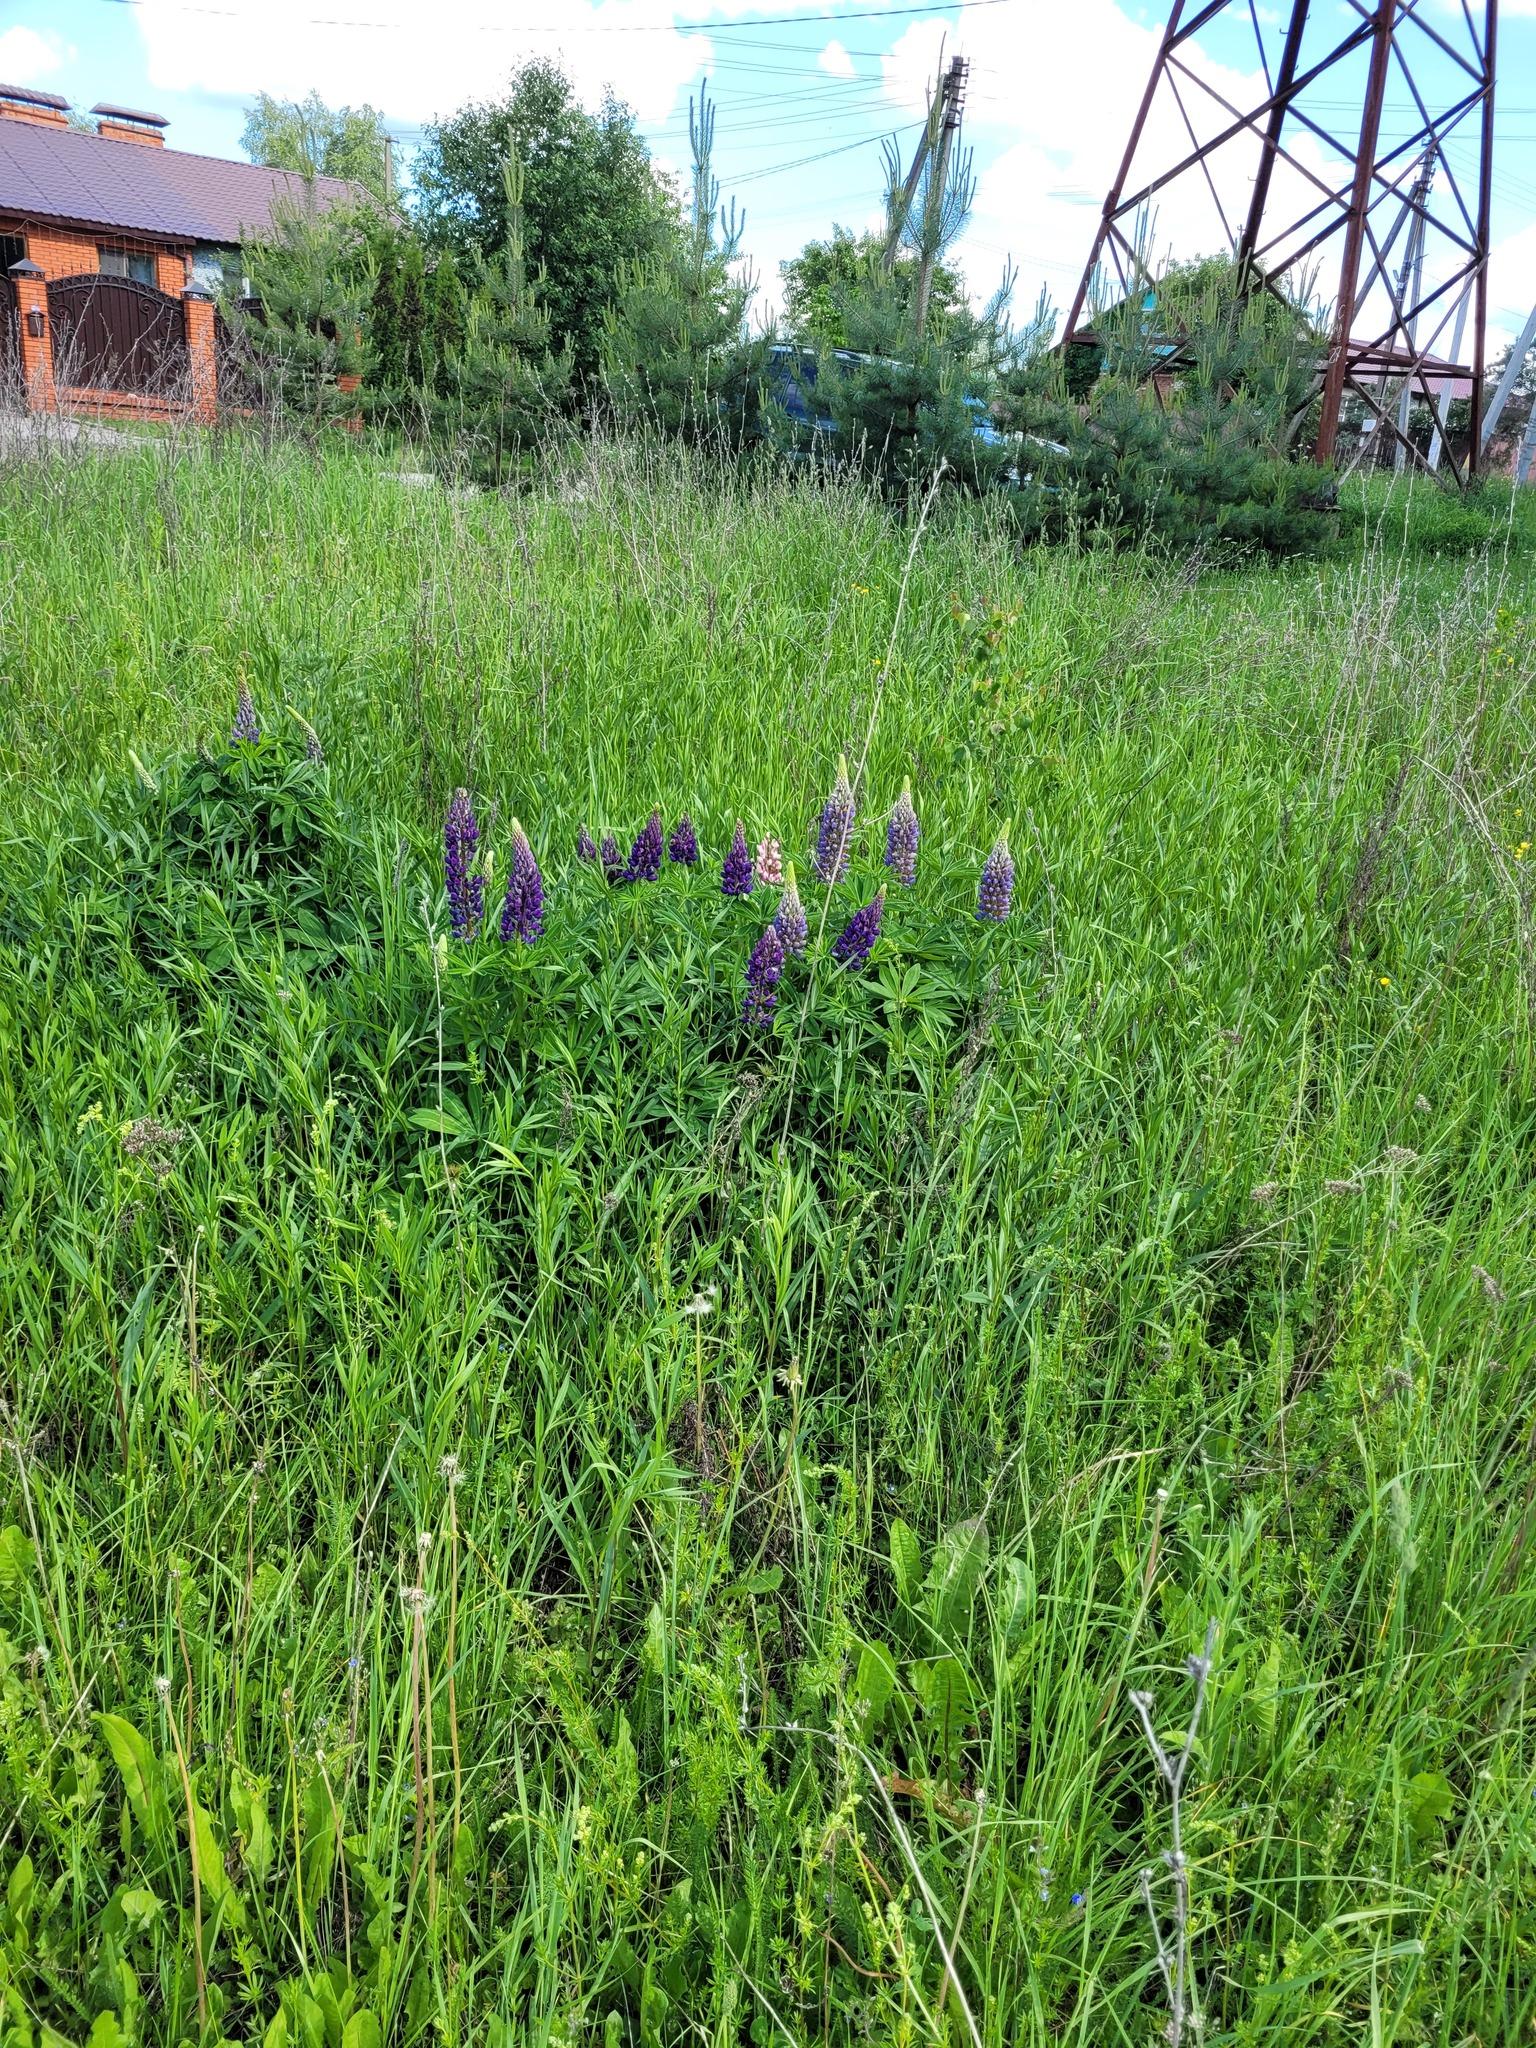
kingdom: Plantae
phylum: Tracheophyta
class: Magnoliopsida
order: Fabales
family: Fabaceae
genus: Lupinus
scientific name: Lupinus polyphyllus
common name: Garden lupin
